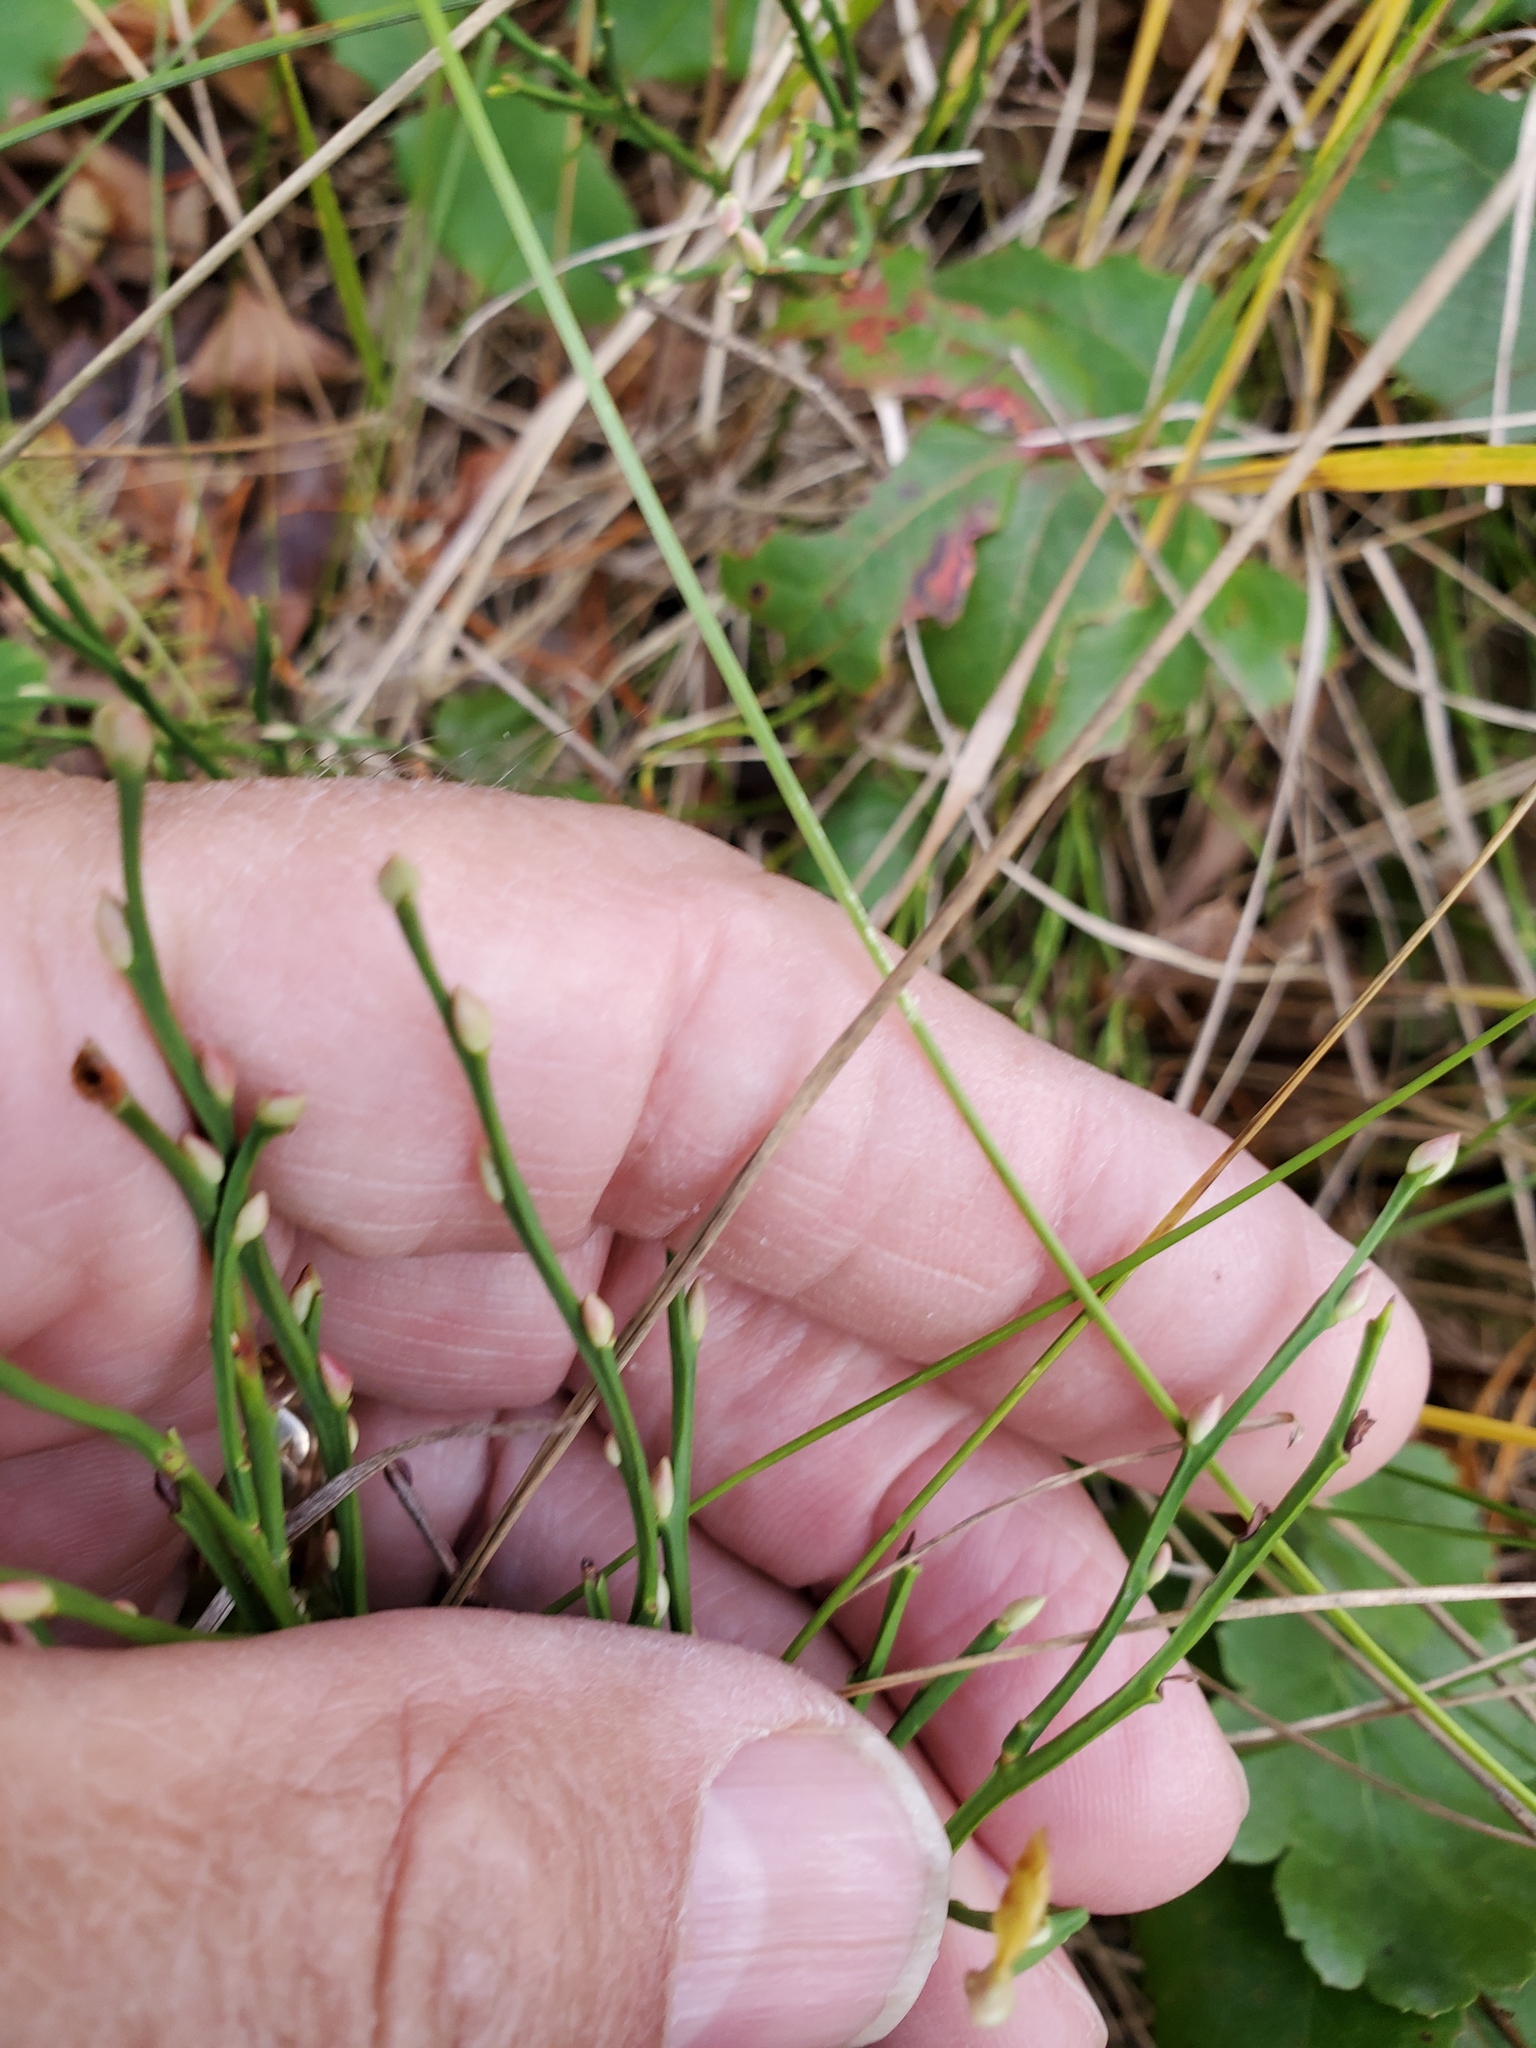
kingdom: Plantae
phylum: Tracheophyta
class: Magnoliopsida
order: Ericales
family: Ericaceae
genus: Vaccinium
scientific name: Vaccinium scoparium
